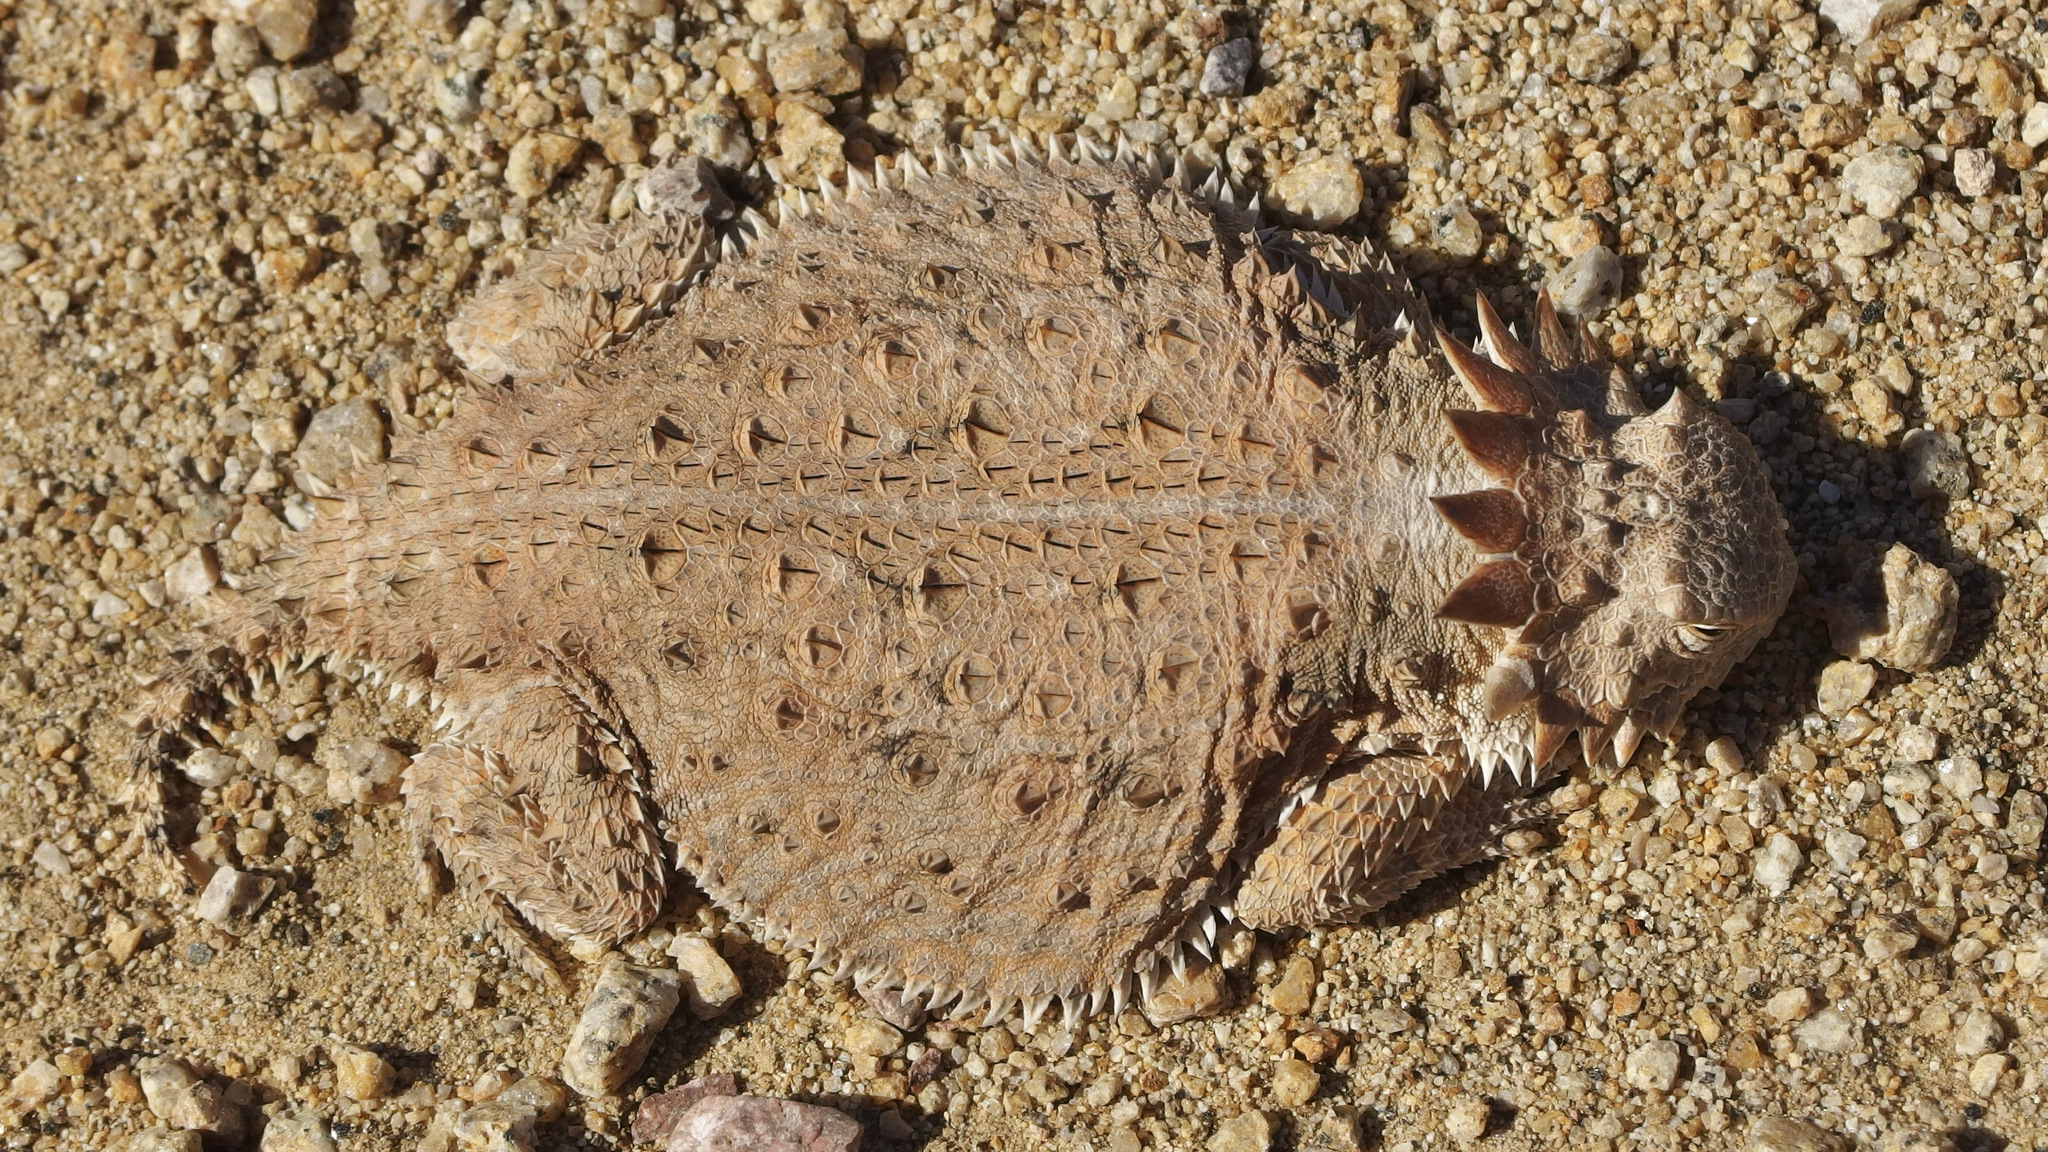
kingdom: Animalia
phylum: Chordata
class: Squamata
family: Phrynosomatidae
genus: Phrynosoma
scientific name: Phrynosoma solare
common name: Regal horned lizard
